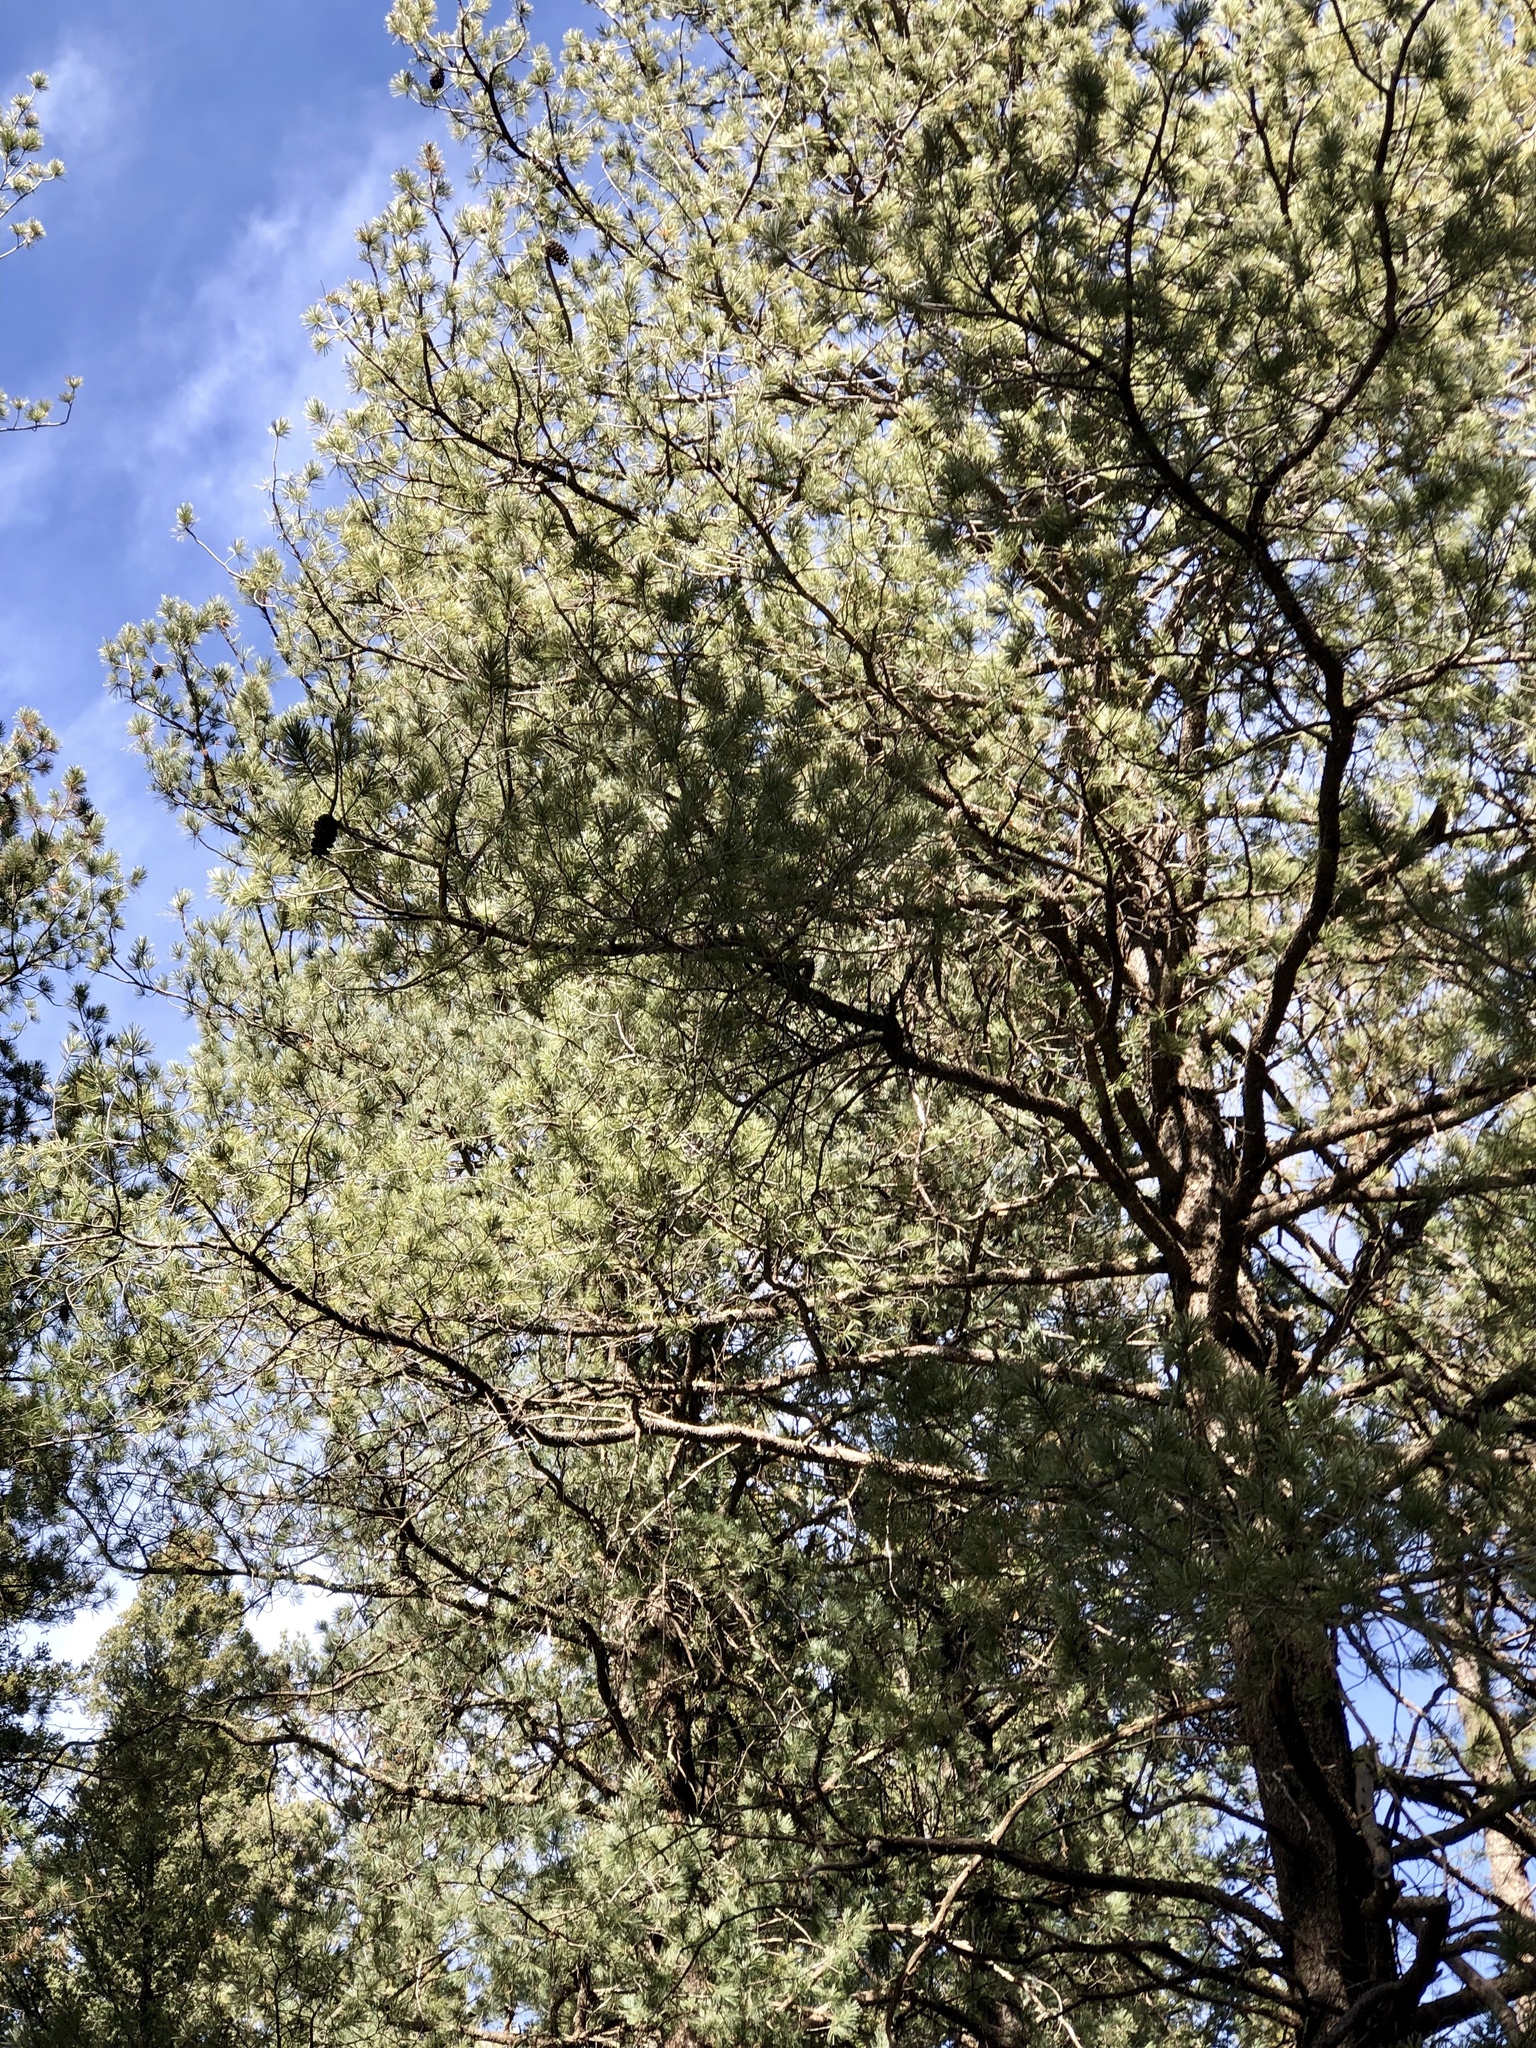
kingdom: Plantae
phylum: Tracheophyta
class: Pinopsida
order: Pinales
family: Pinaceae
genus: Pinus
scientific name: Pinus strobiformis
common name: Southwestern white pine
